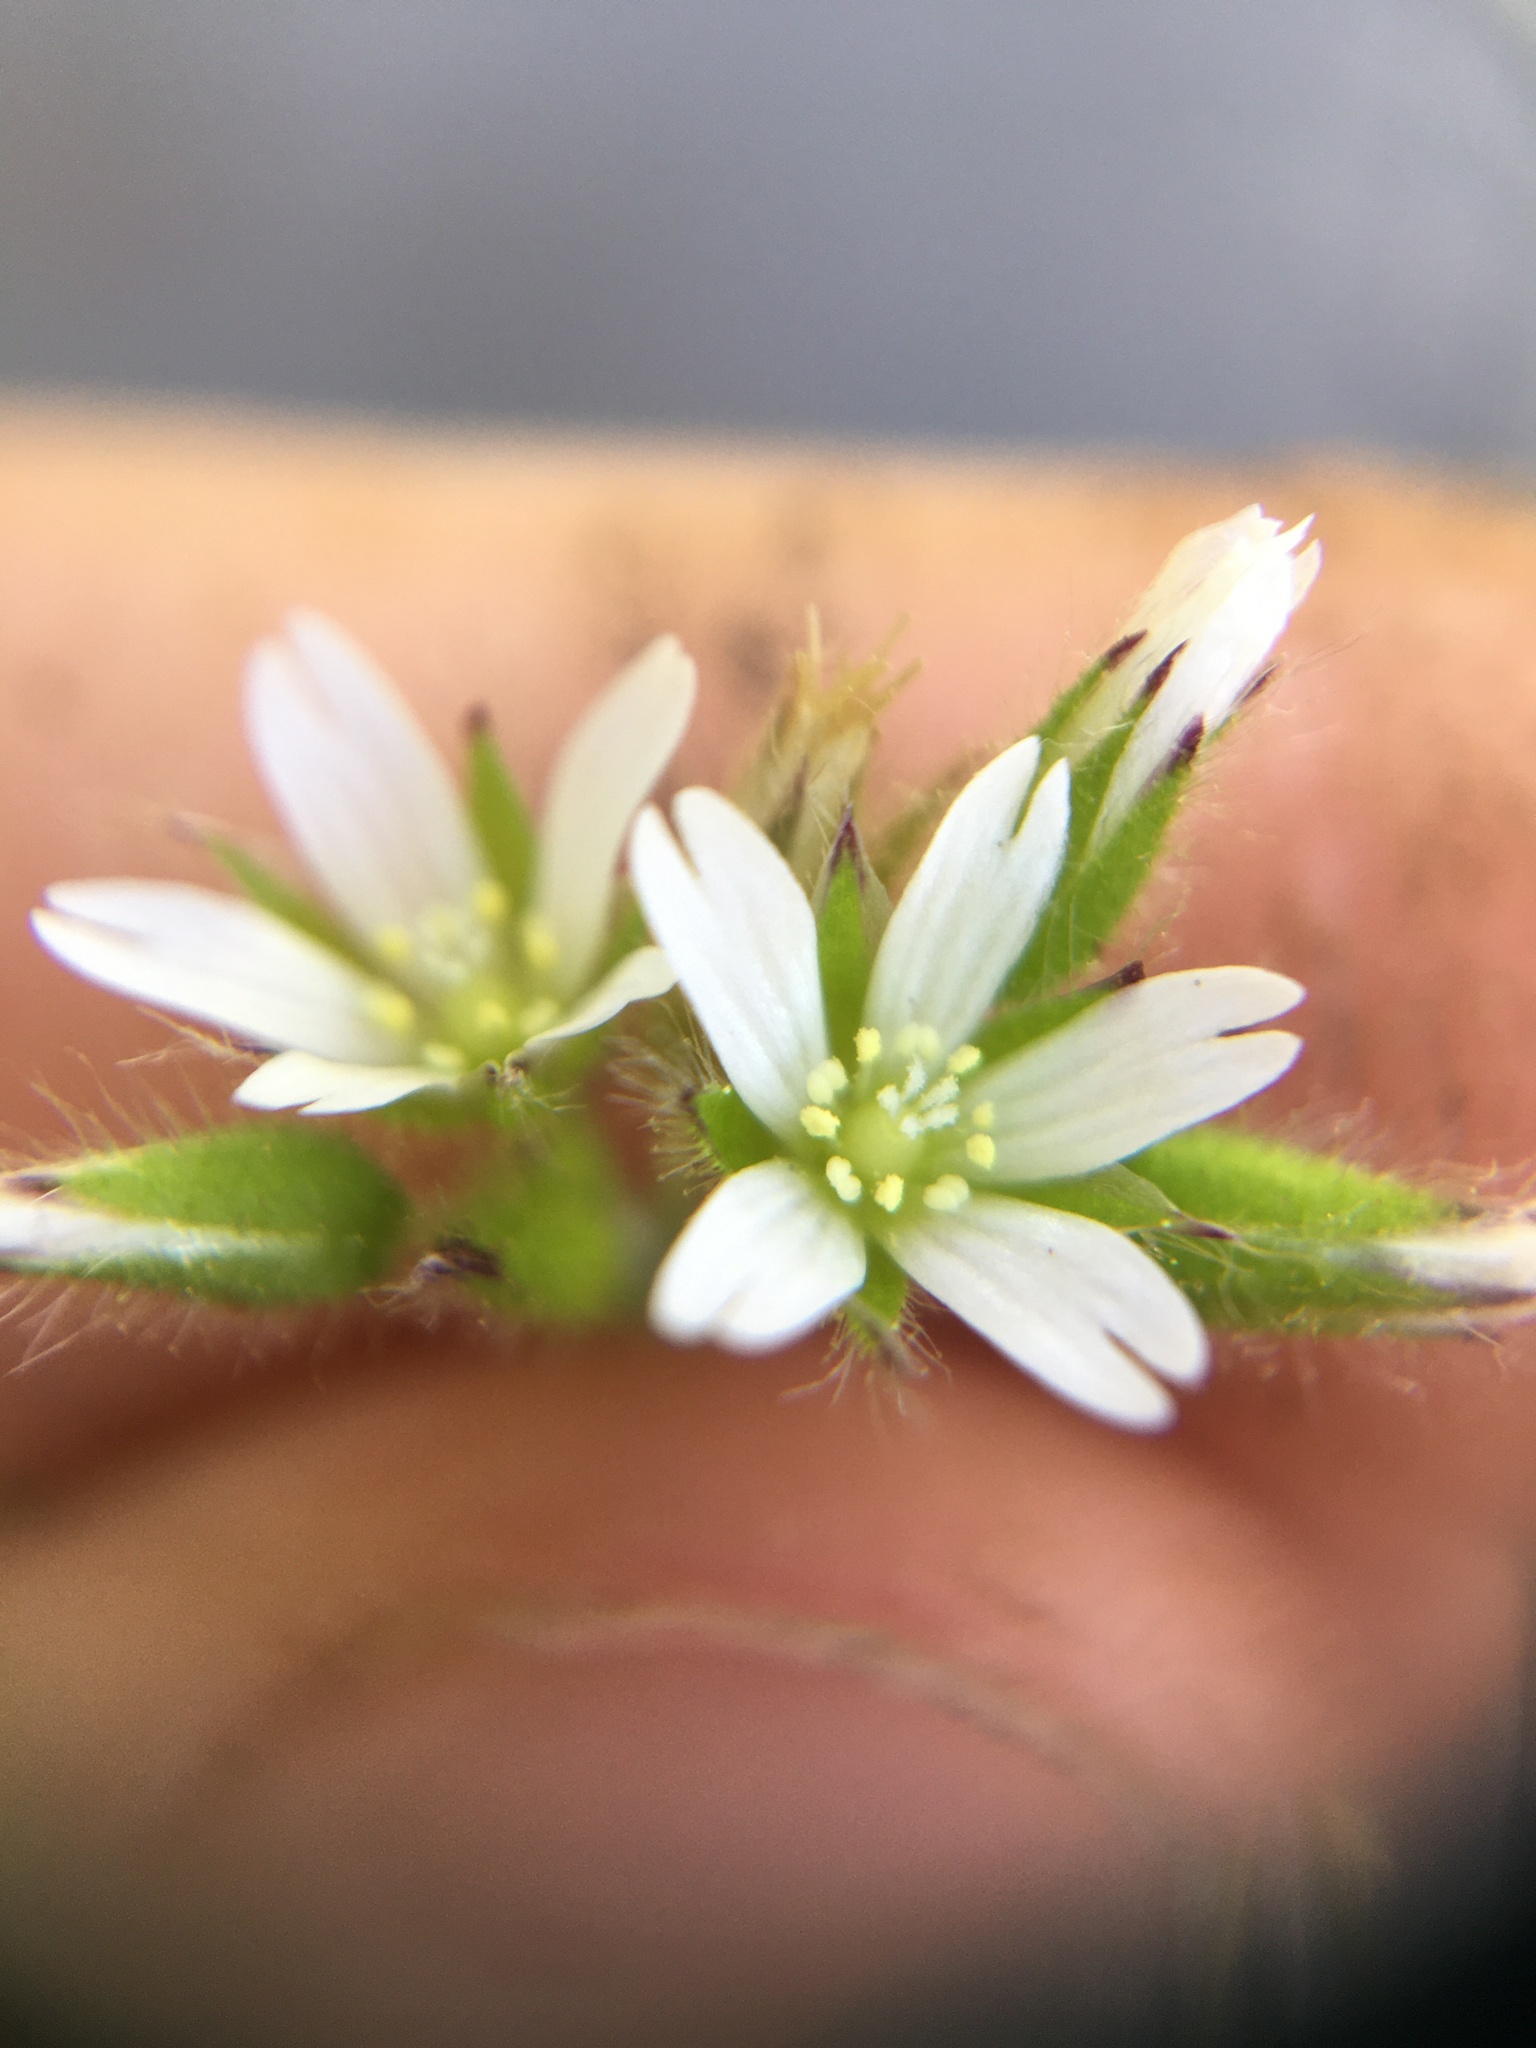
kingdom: Plantae
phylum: Tracheophyta
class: Magnoliopsida
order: Caryophyllales
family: Caryophyllaceae
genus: Cerastium
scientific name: Cerastium glomeratum
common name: Sticky chickweed
